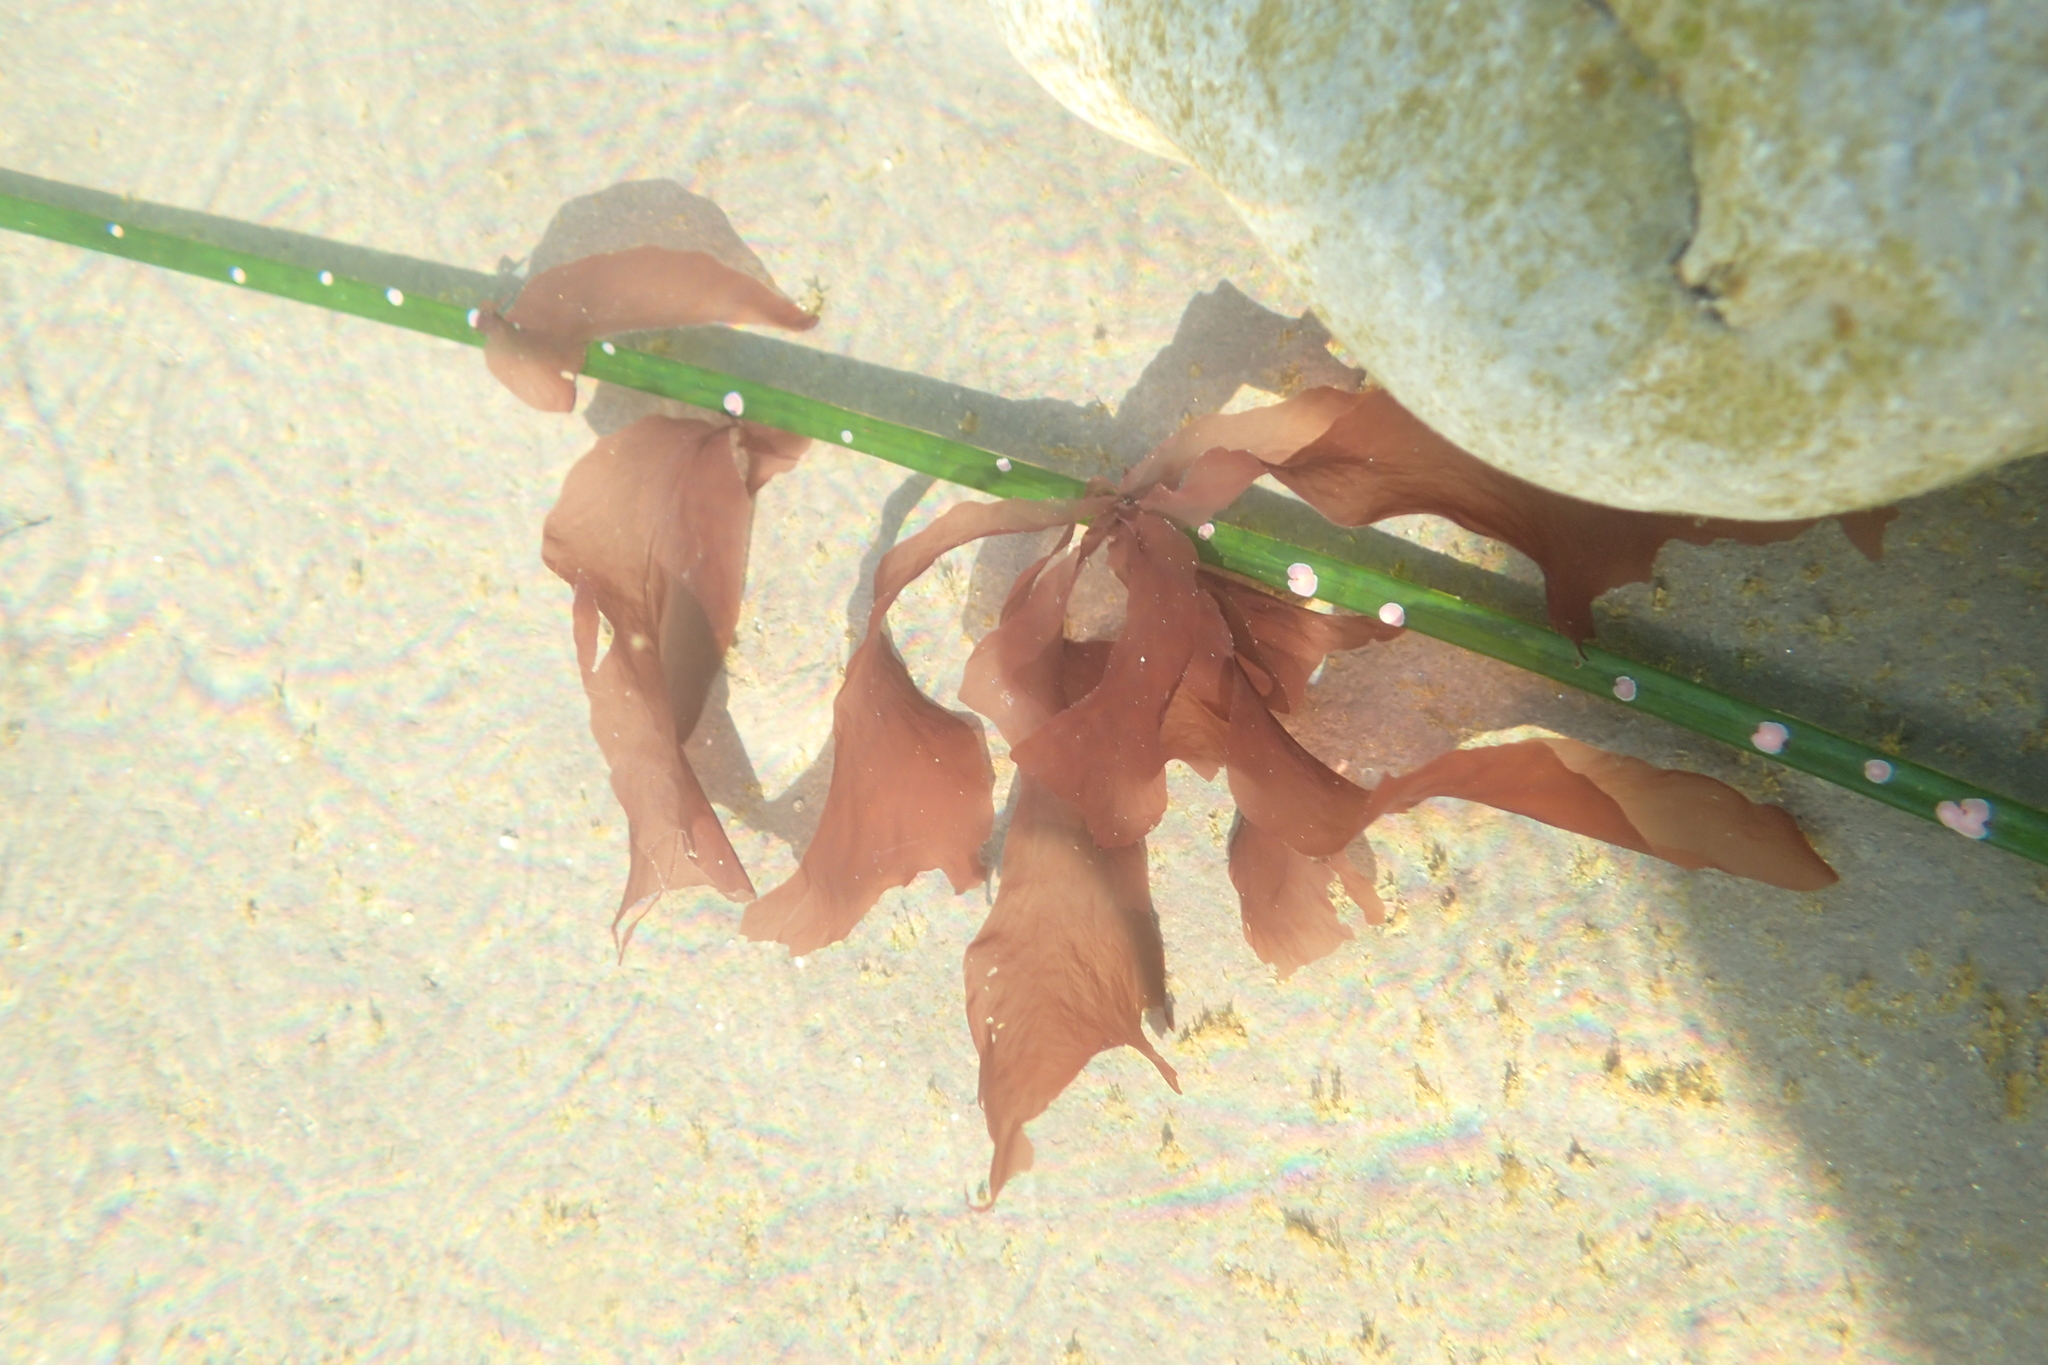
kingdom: Plantae
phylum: Rhodophyta
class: Compsopogonophyceae
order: Erythropeltidales
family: Erythrotrichiaceae
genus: Smithora
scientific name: Smithora naiadum
